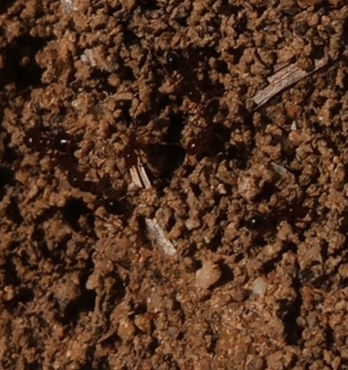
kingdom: Animalia
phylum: Arthropoda
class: Insecta
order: Hymenoptera
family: Formicidae
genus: Solenopsis
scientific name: Solenopsis invicta
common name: Red imported fire ant
